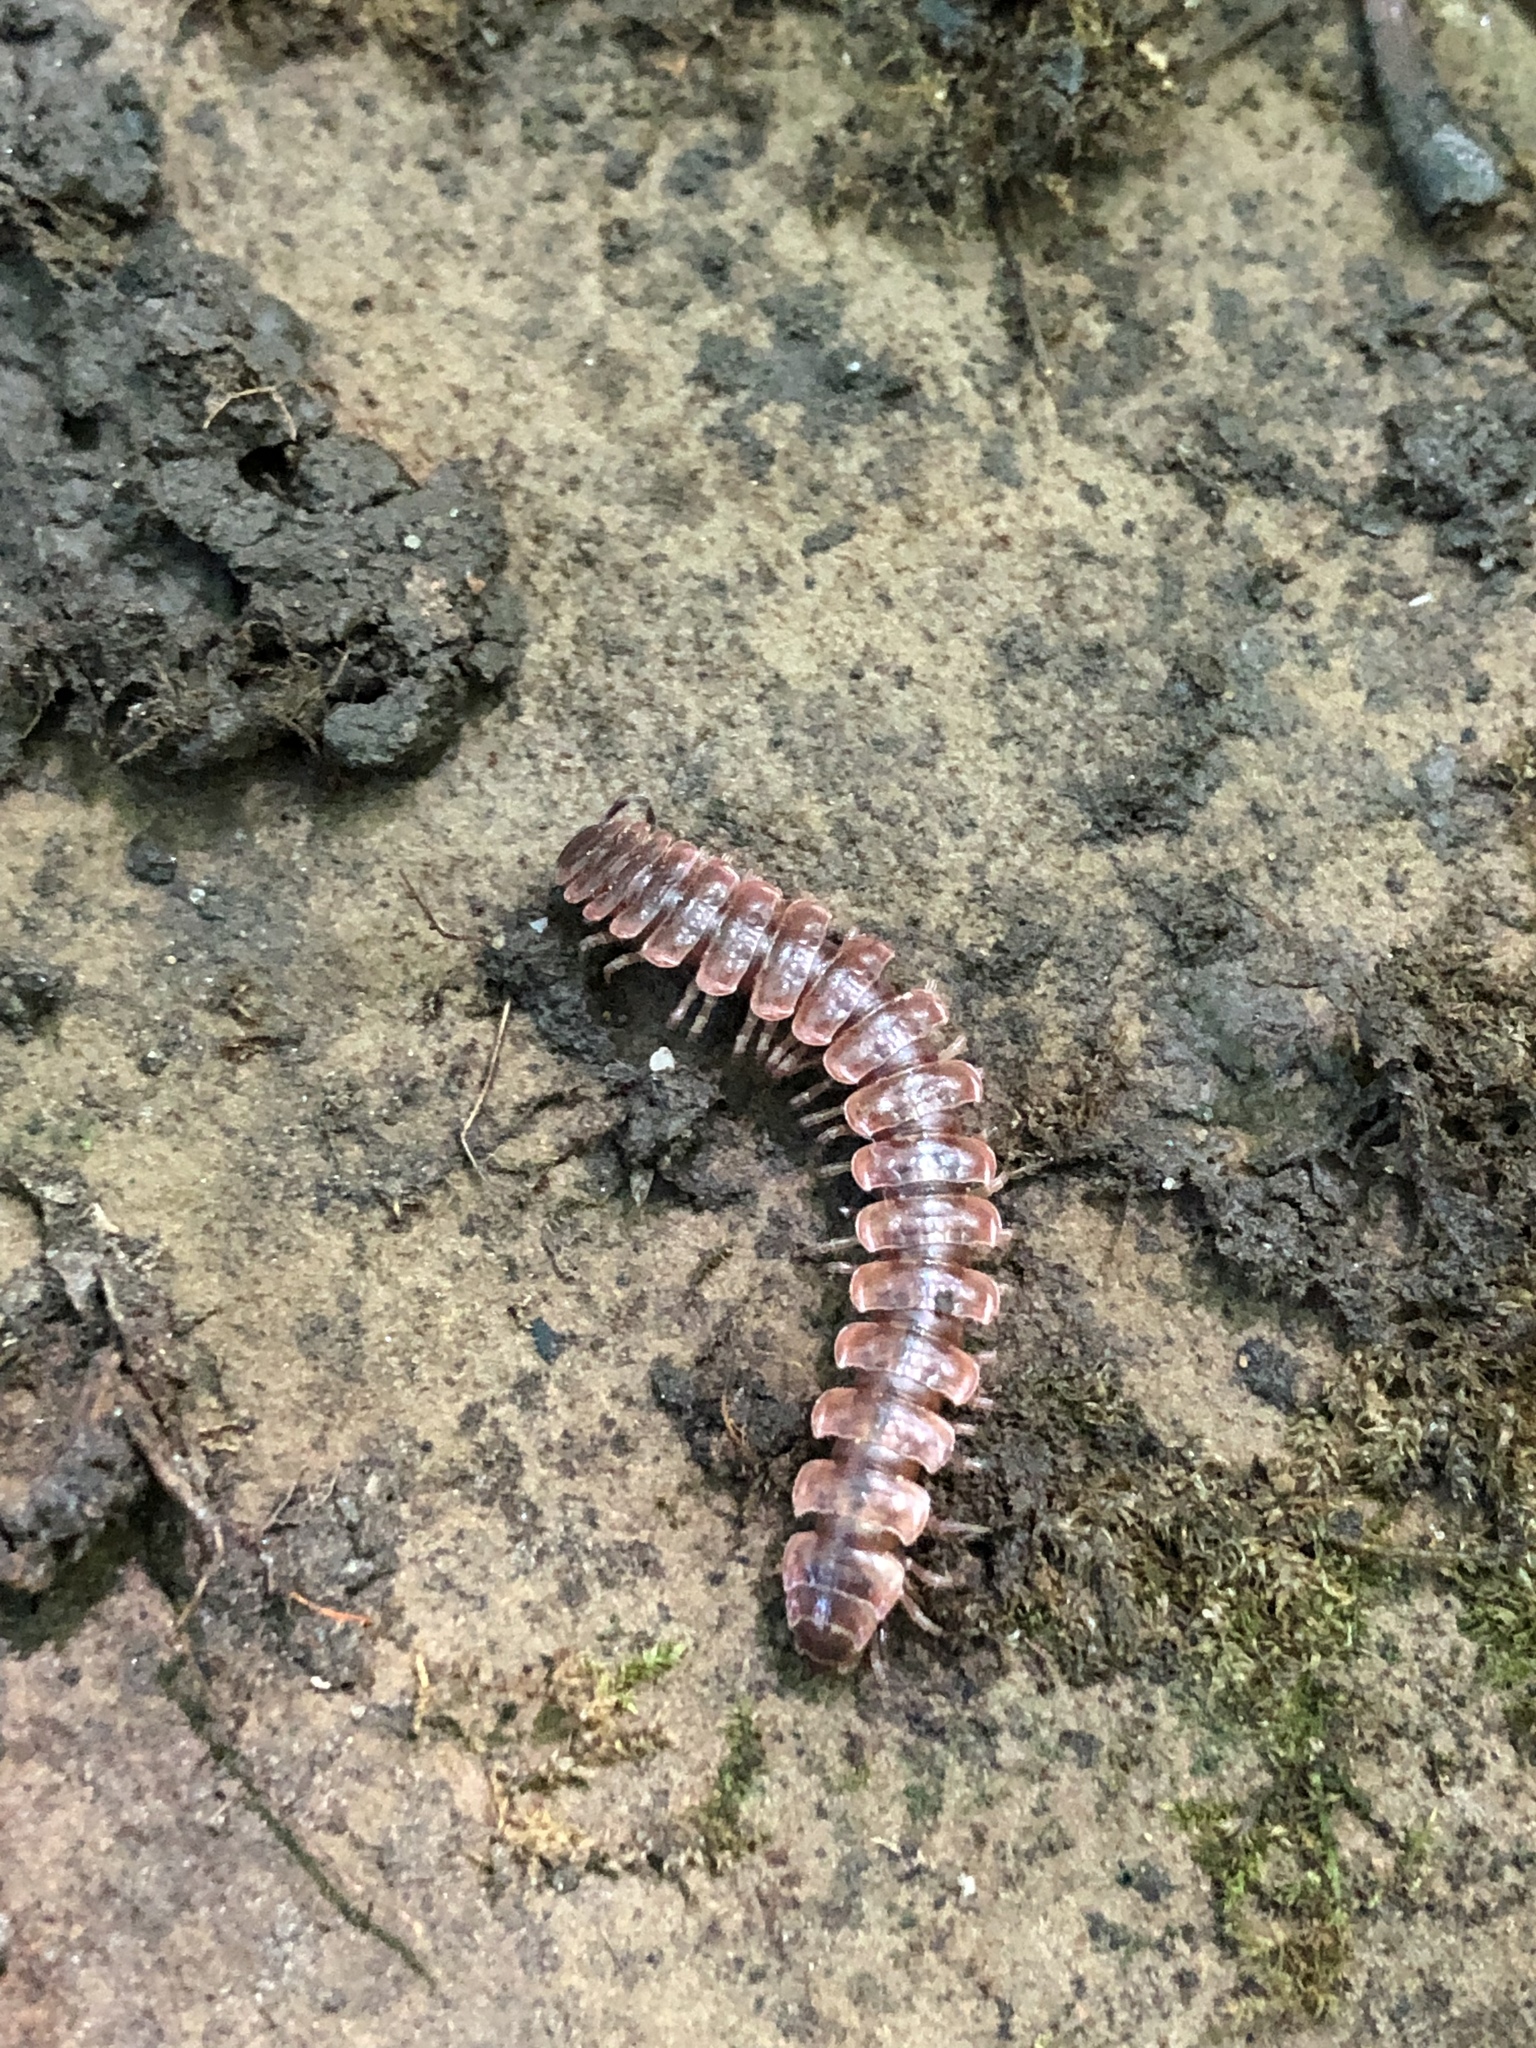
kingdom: Animalia
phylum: Arthropoda
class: Diplopoda
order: Polydesmida
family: Polydesmidae
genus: Pseudopolydesmus
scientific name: Pseudopolydesmus serratus
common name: Common pink flat-back millipede
